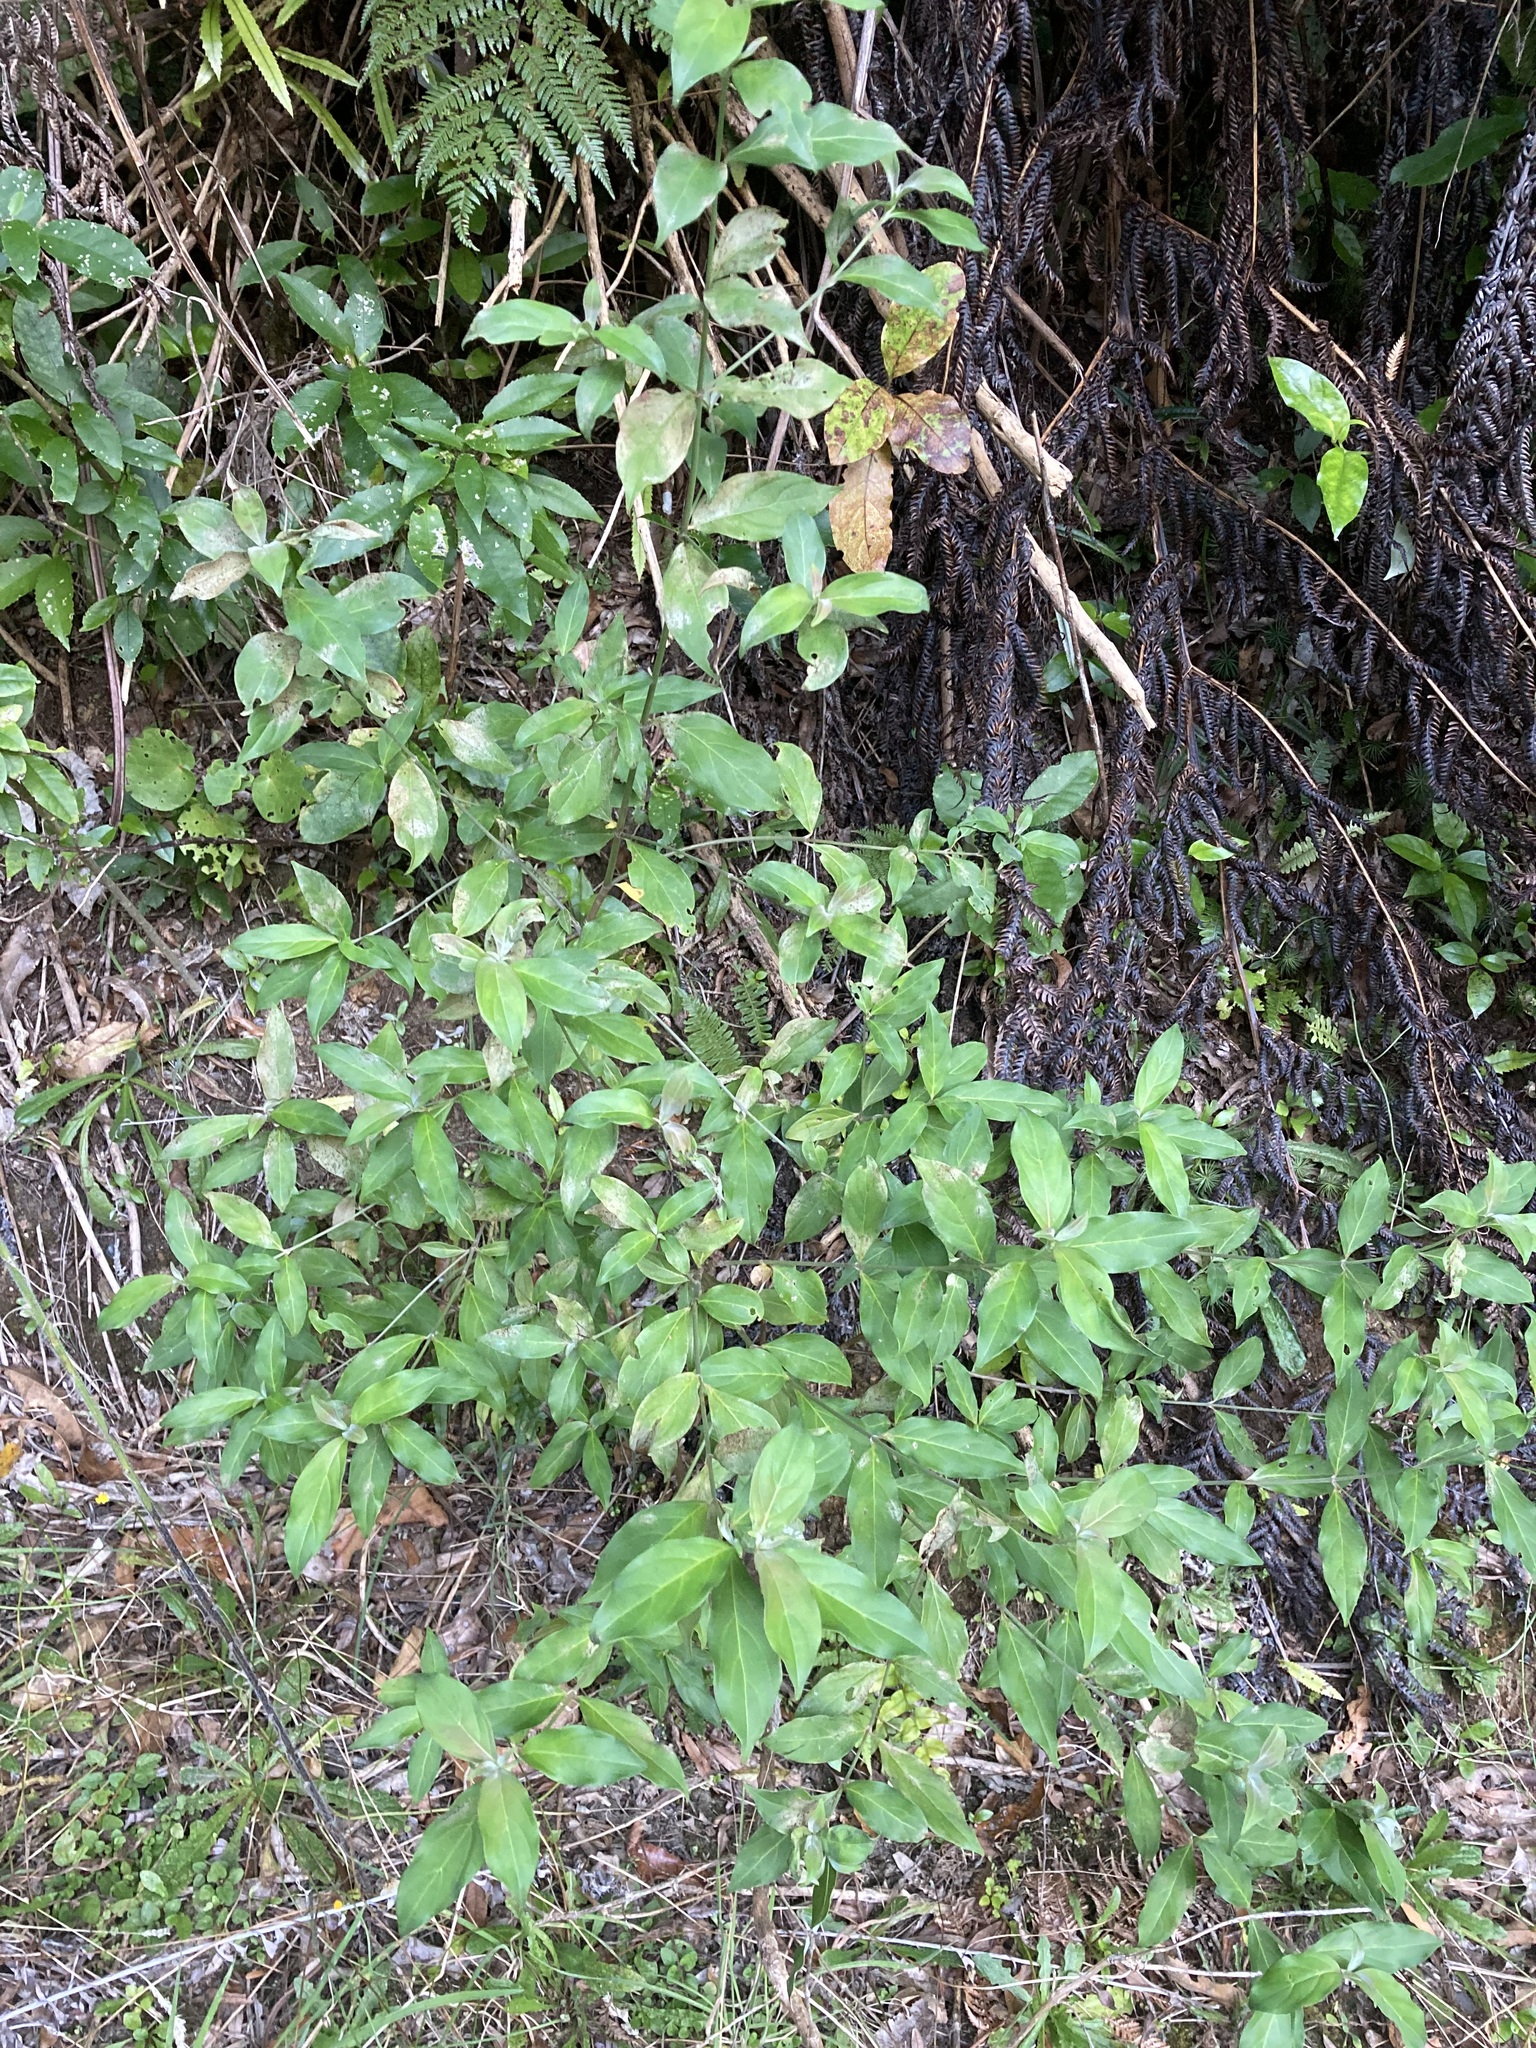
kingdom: Plantae
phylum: Tracheophyta
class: Magnoliopsida
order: Cornales
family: Cornaceae
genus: Cornus
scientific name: Cornus capitata
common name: Bentham's cornel
